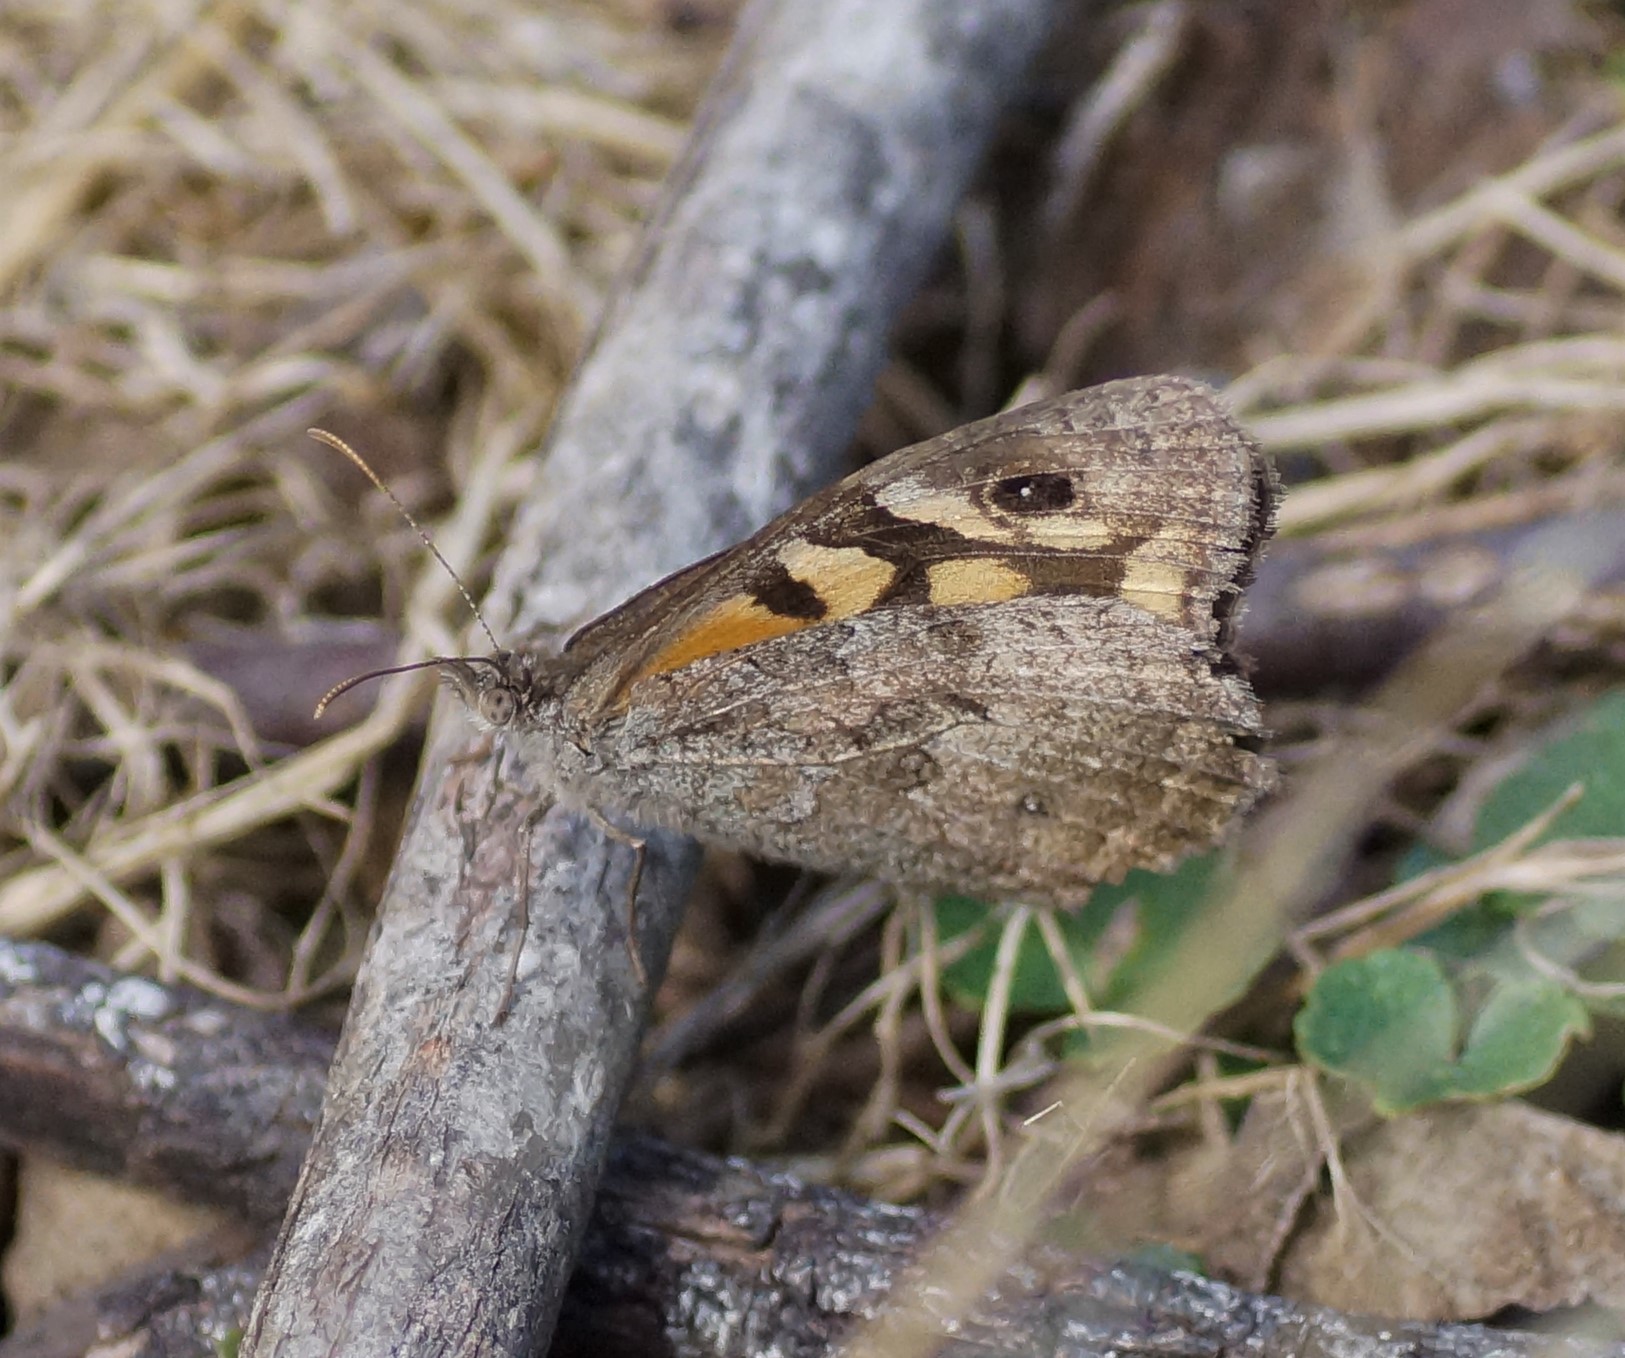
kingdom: Animalia
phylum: Arthropoda
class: Insecta
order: Lepidoptera
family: Nymphalidae
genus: Geitoneura
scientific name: Geitoneura klugii
